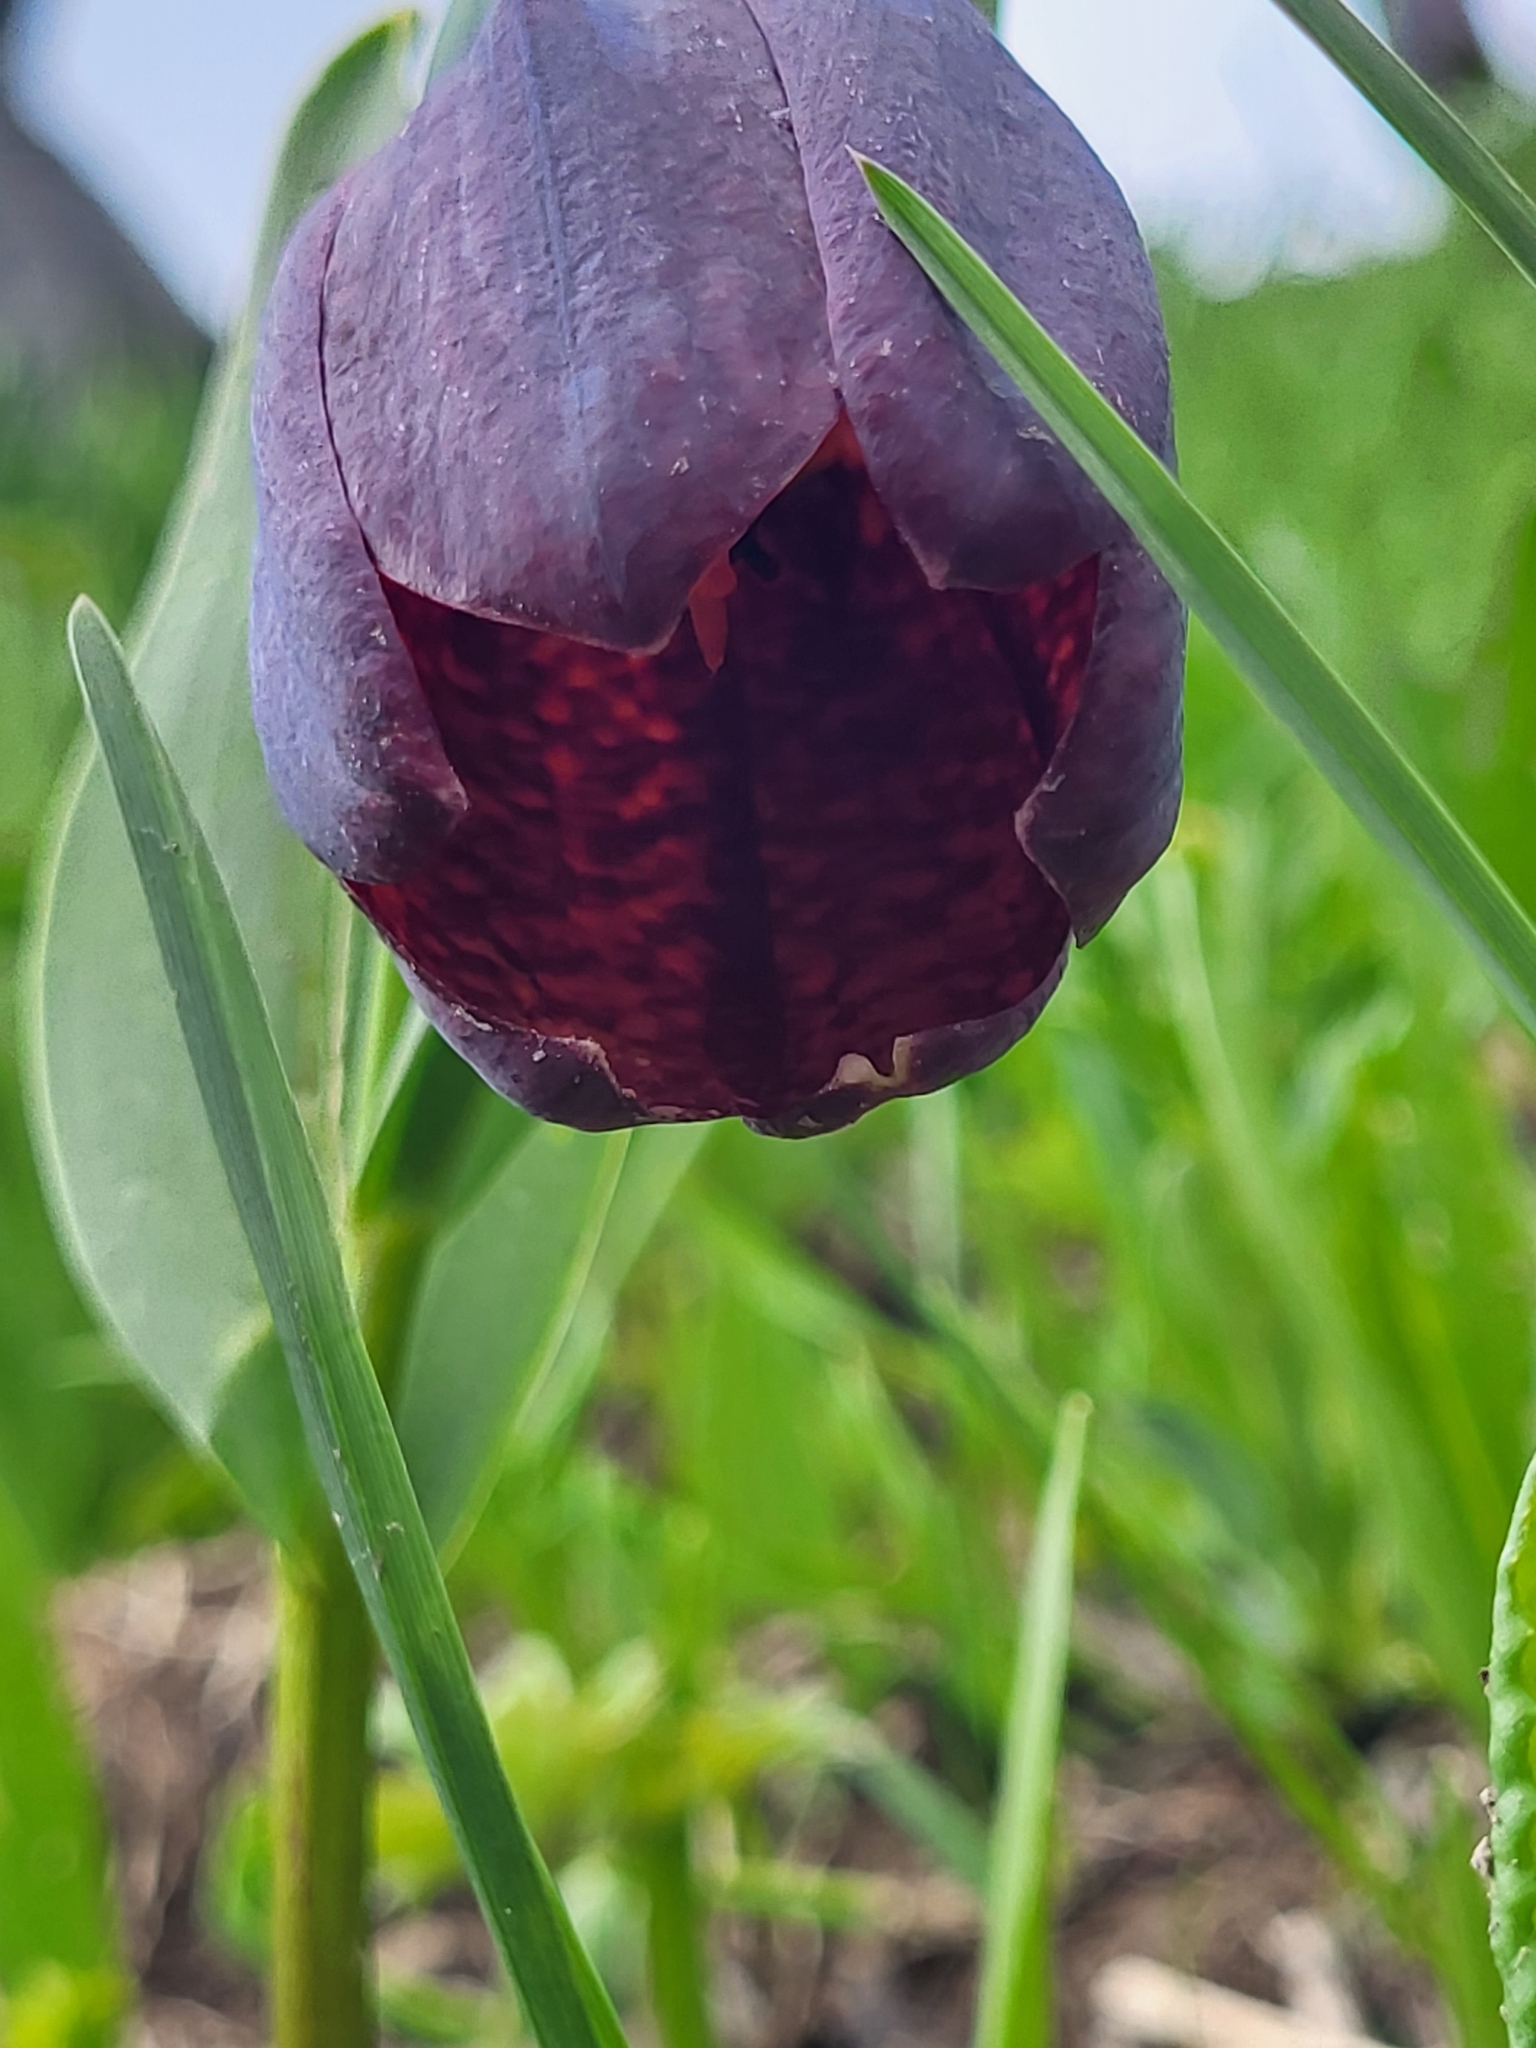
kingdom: Plantae
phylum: Tracheophyta
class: Liliopsida
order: Liliales
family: Liliaceae
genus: Fritillaria
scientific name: Fritillaria latifolia
